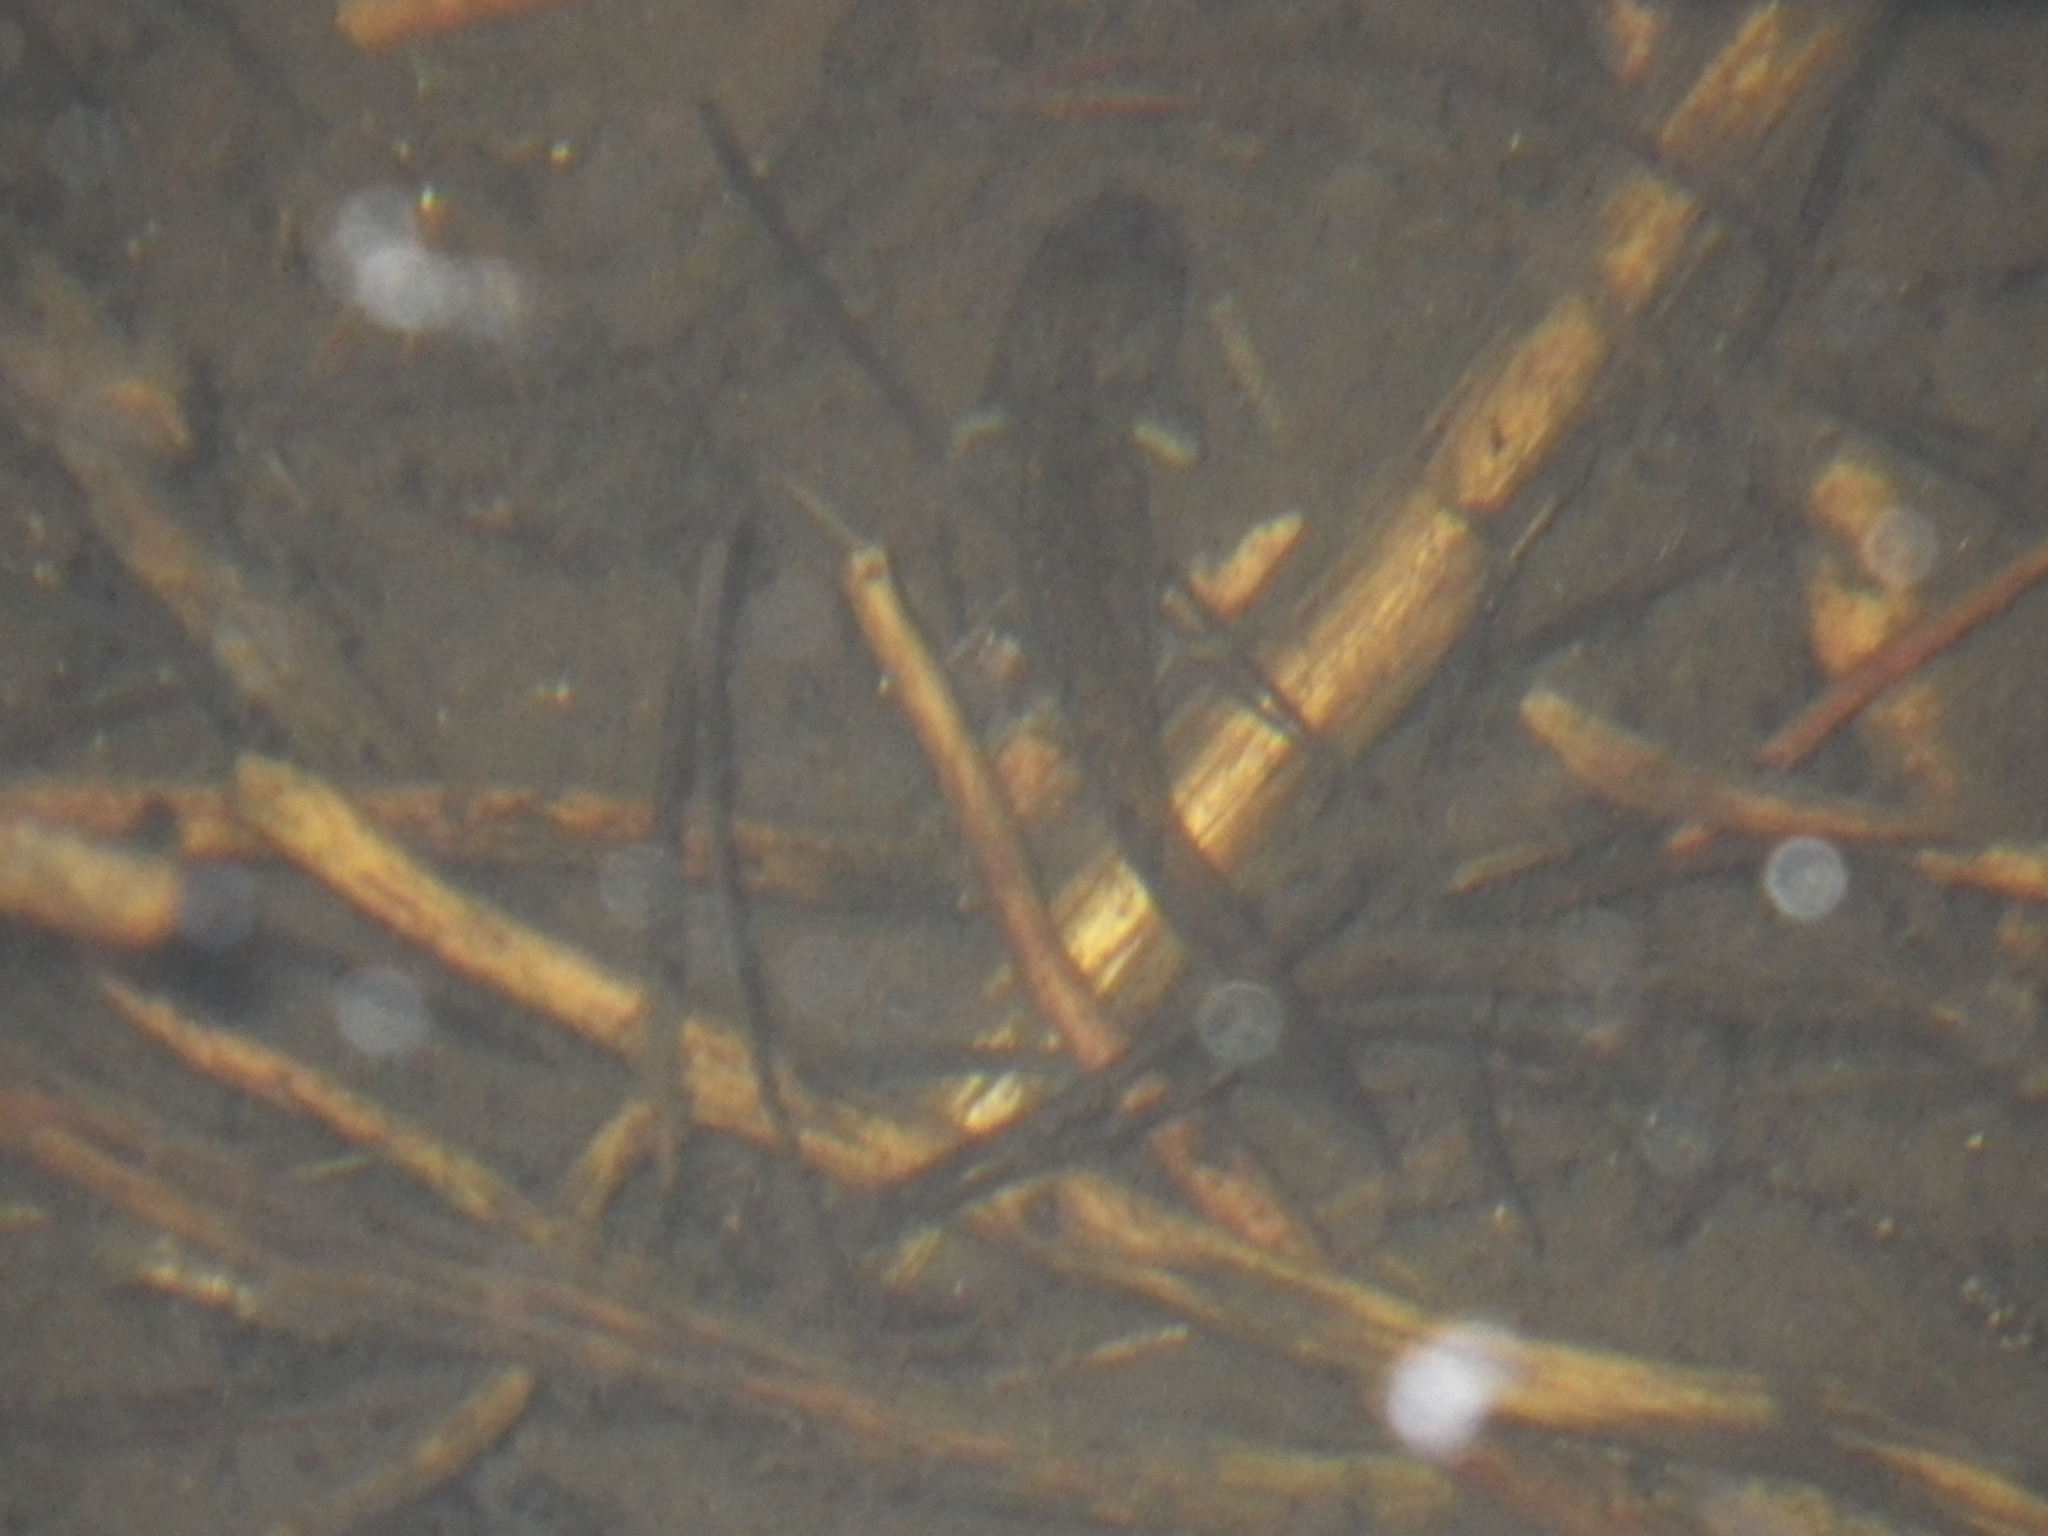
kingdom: Animalia
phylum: Chordata
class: Amphibia
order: Caudata
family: Ambystomatidae
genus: Ambystoma
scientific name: Ambystoma macrodactylum
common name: Long-toed salamander
